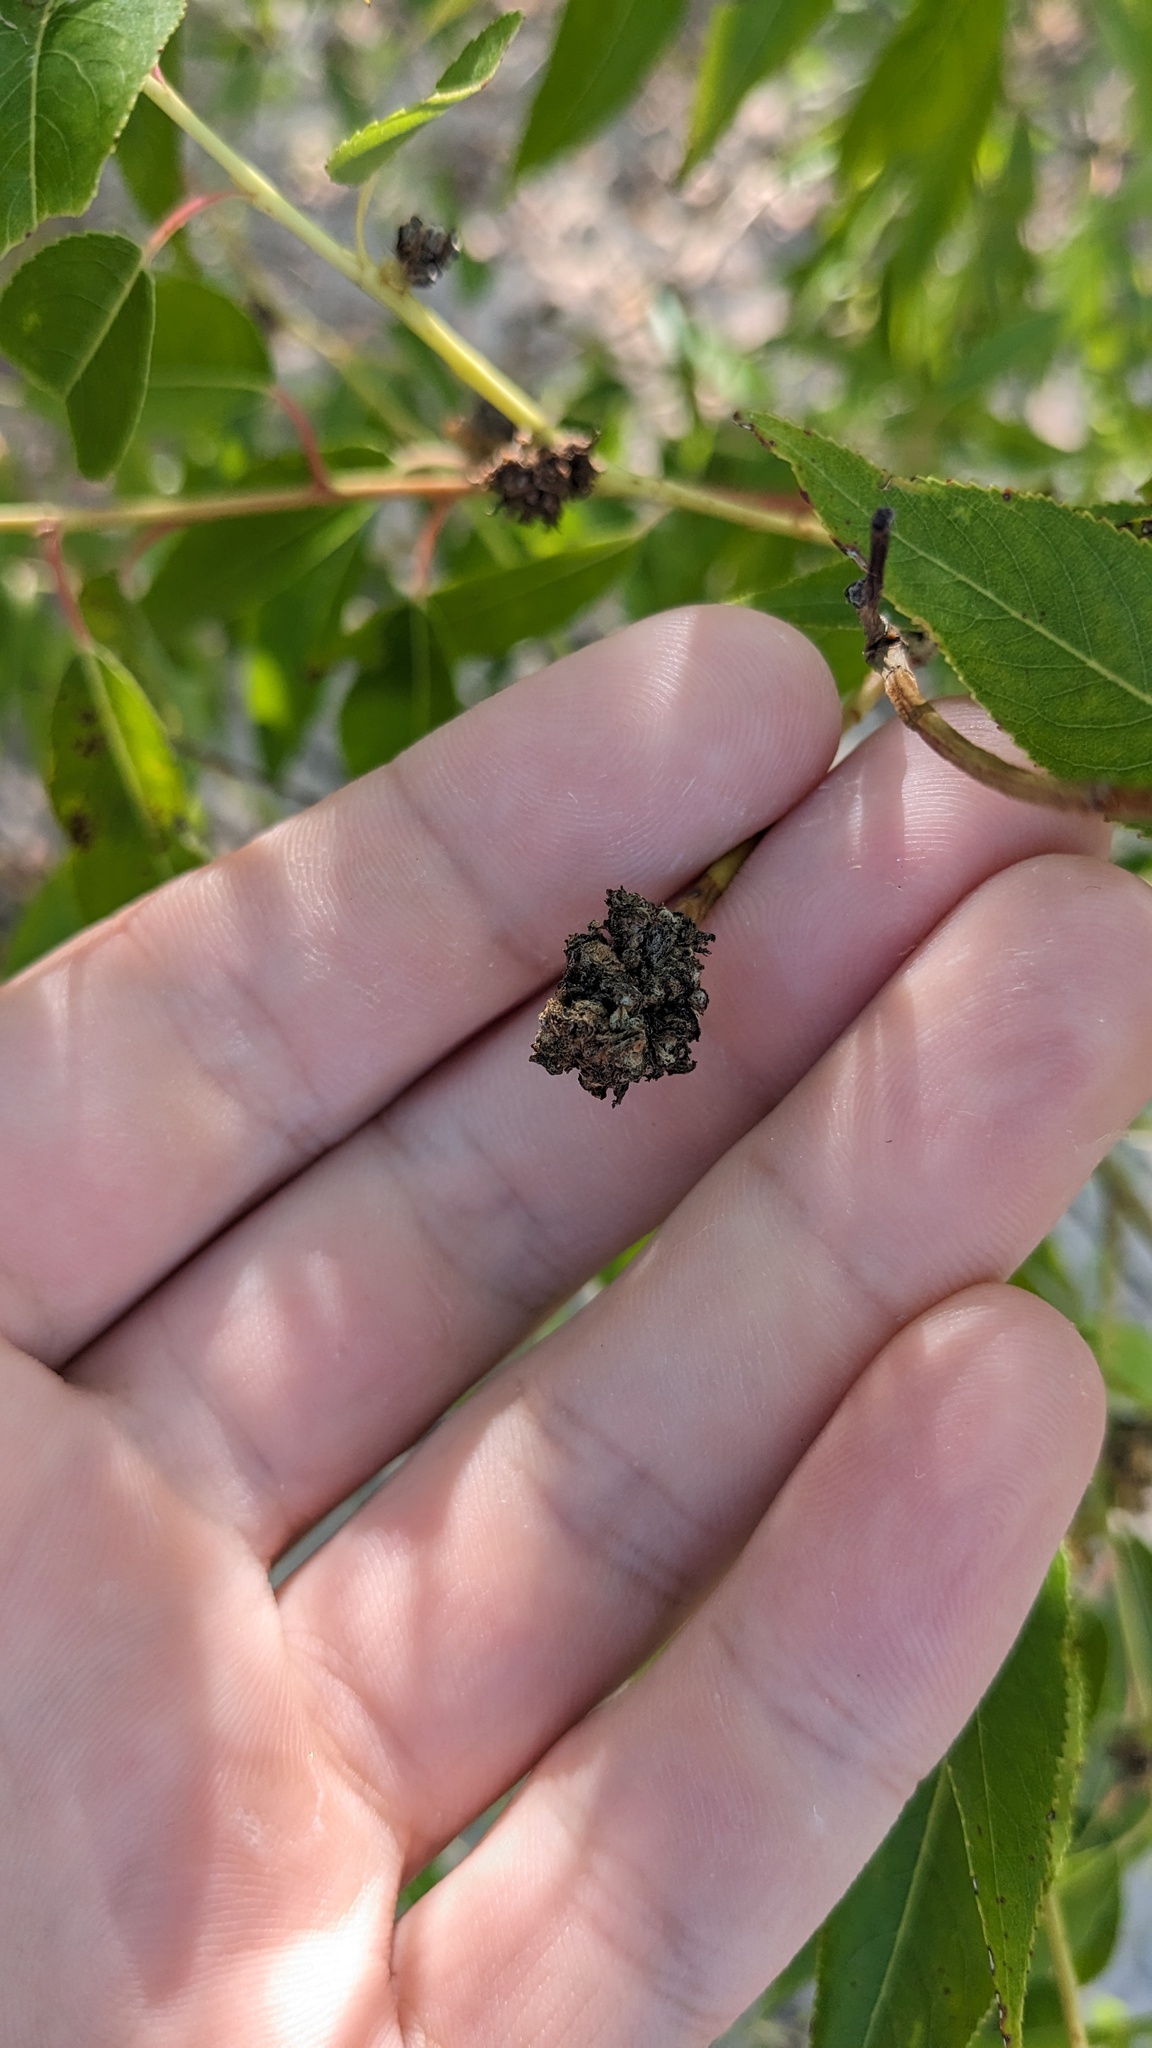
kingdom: Animalia
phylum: Arthropoda
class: Arachnida
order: Trombidiformes
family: Eriophyidae
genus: Aculops
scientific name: Aculops
